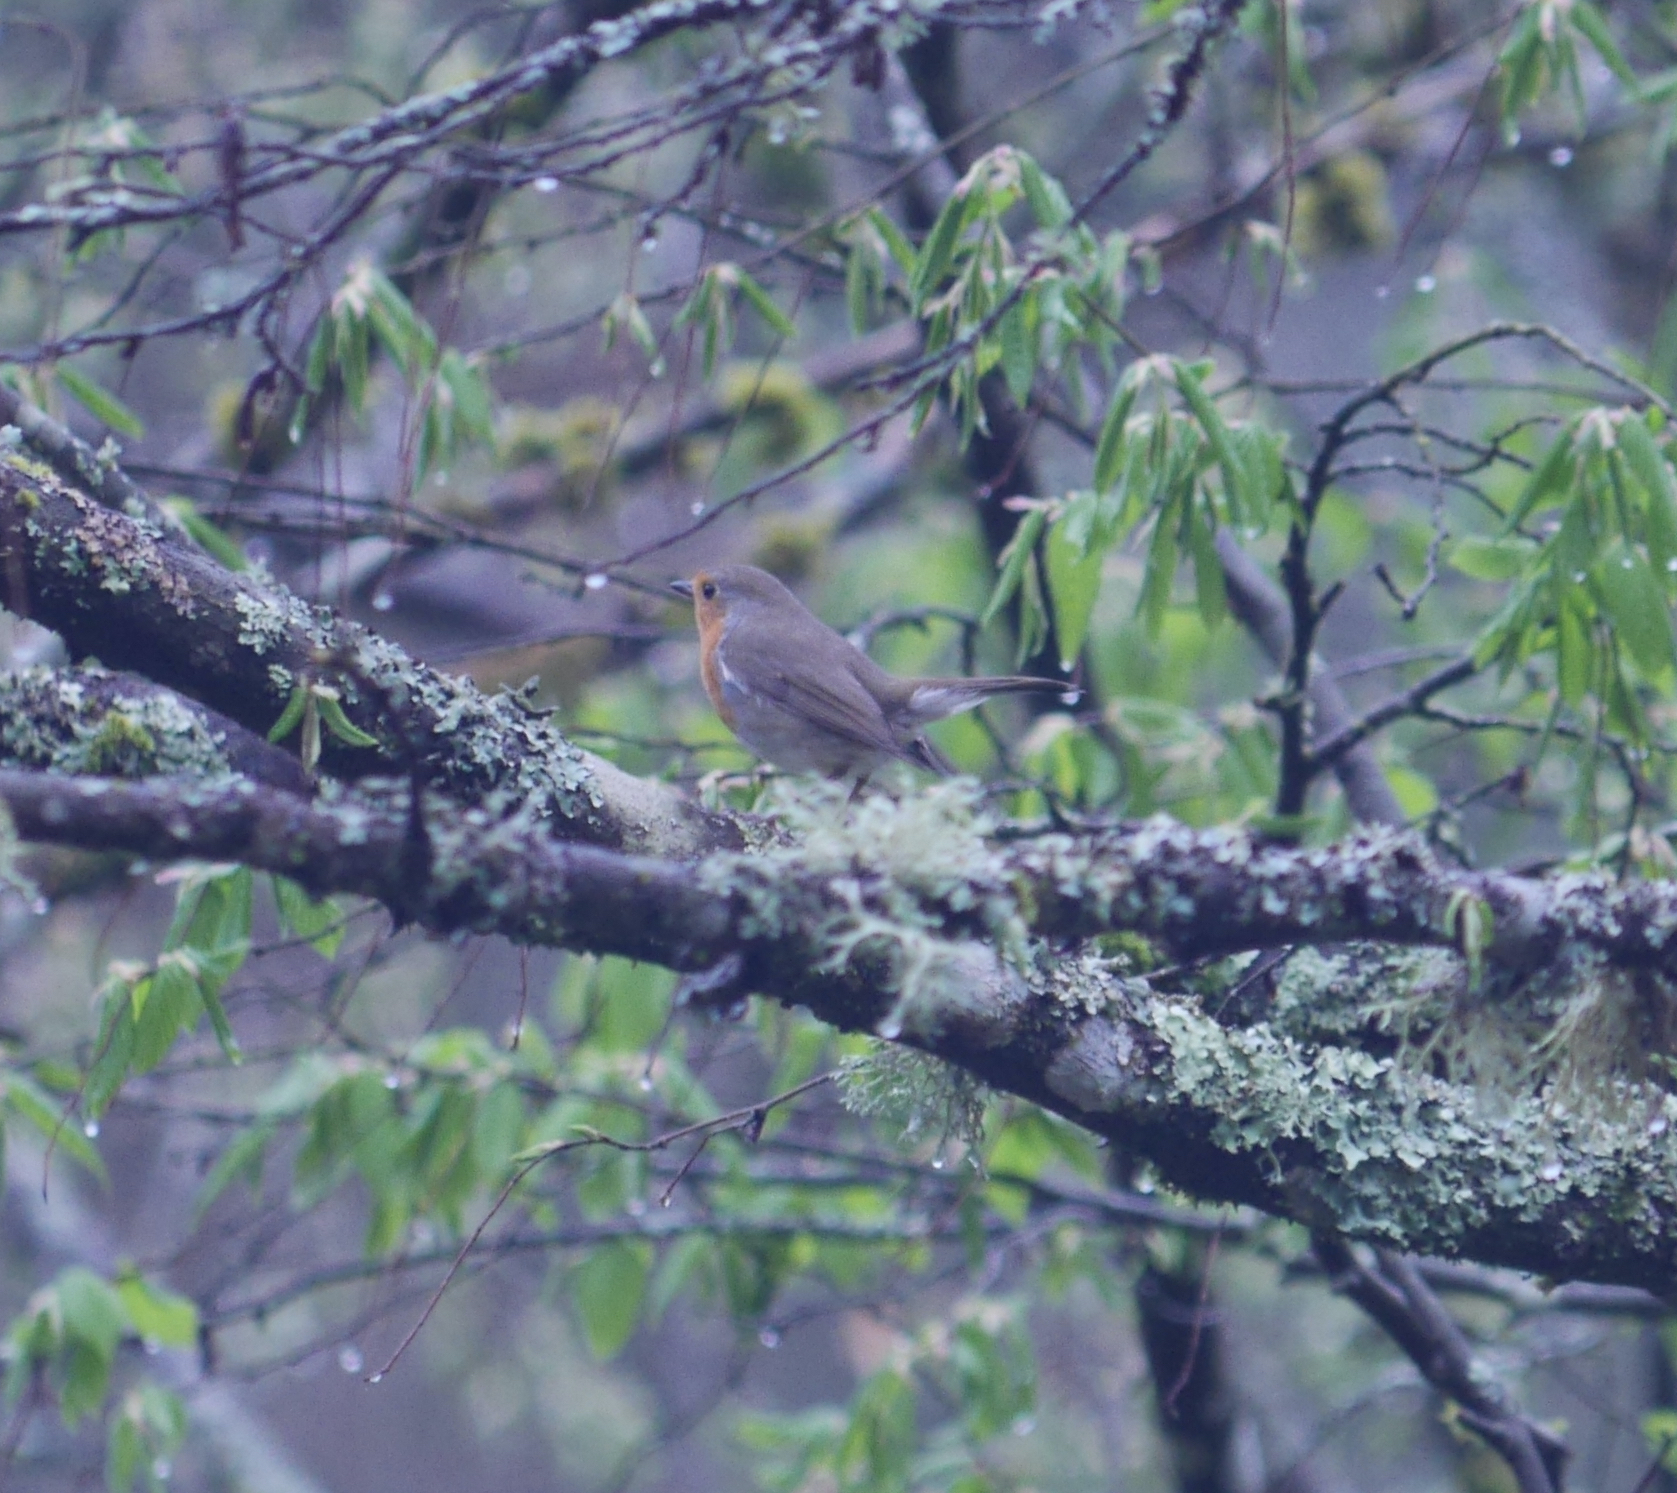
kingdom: Animalia
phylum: Chordata
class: Aves
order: Passeriformes
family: Muscicapidae
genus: Erithacus
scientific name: Erithacus rubecula
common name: European robin
